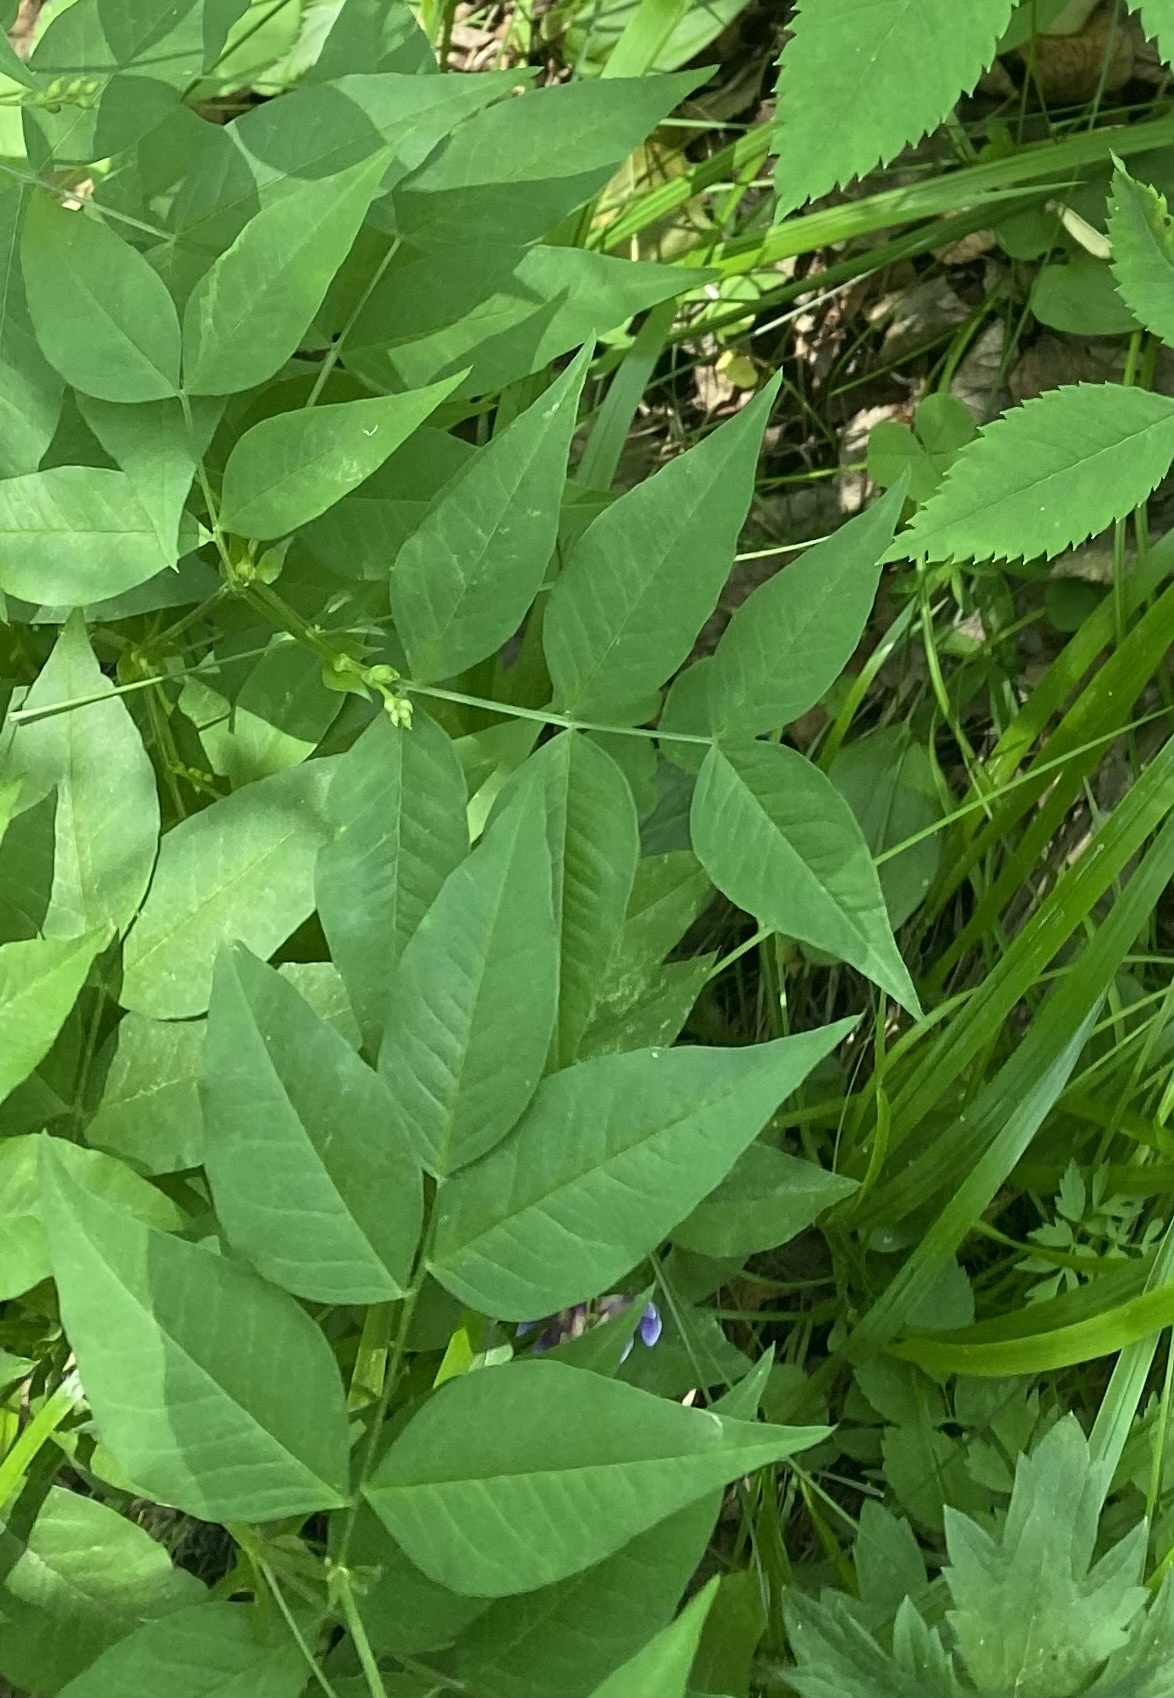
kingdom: Plantae
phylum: Tracheophyta
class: Magnoliopsida
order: Fabales
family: Fabaceae
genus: Vicia
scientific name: Vicia ramuliflora
